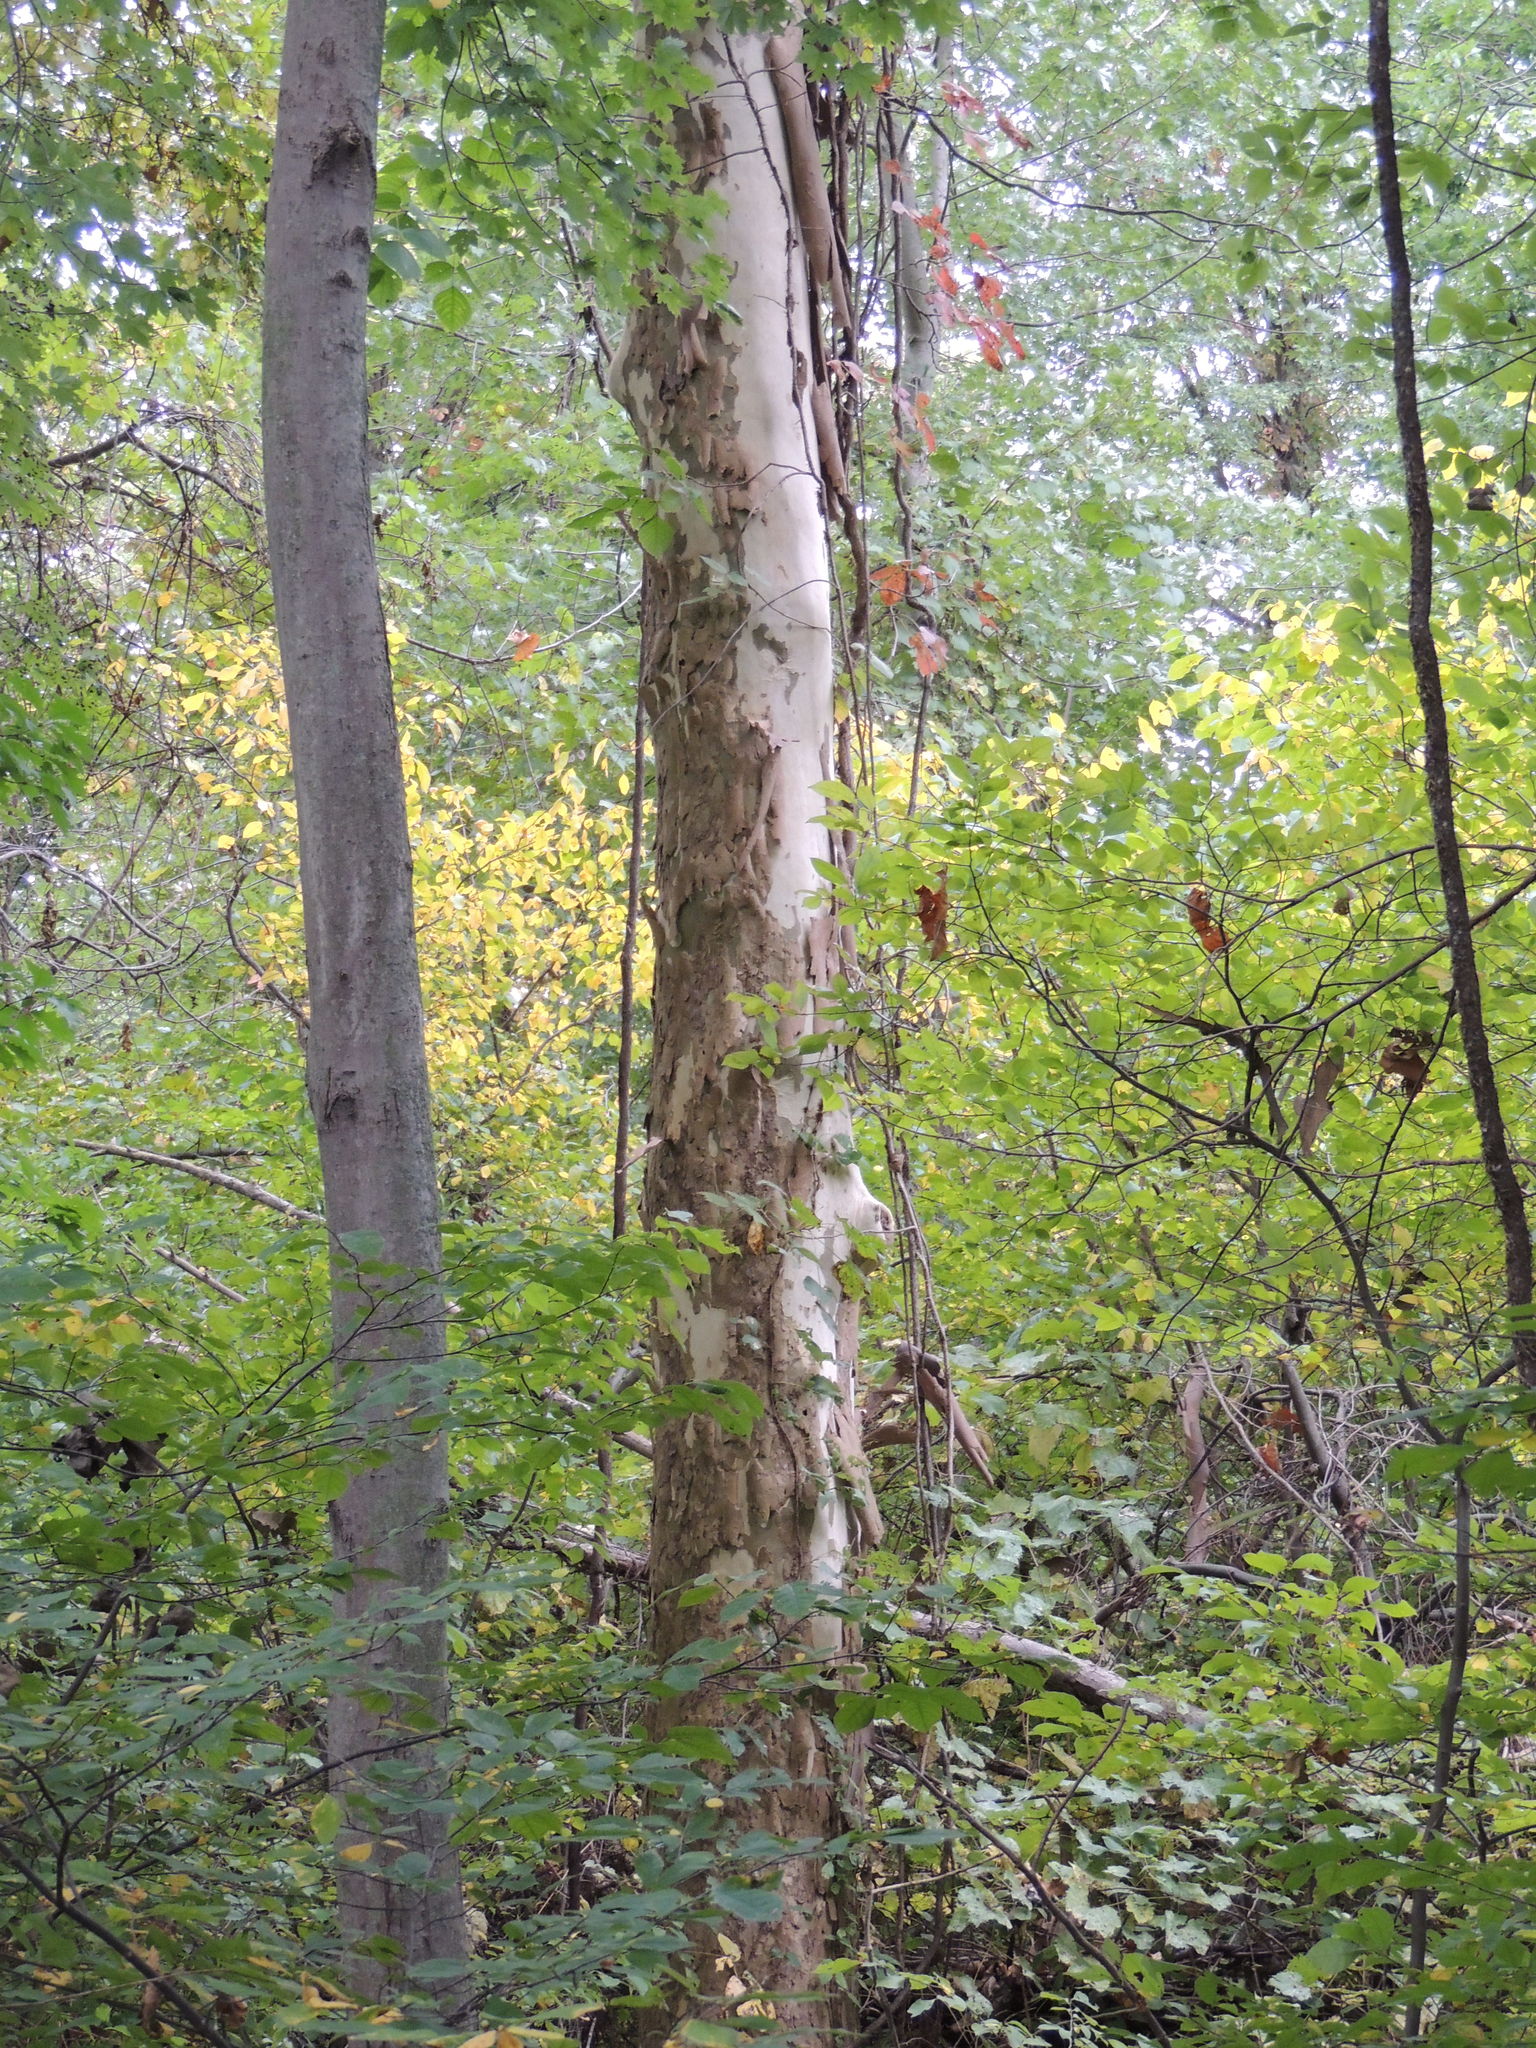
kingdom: Plantae
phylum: Tracheophyta
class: Magnoliopsida
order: Proteales
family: Platanaceae
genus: Platanus
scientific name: Platanus occidentalis
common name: American sycamore
